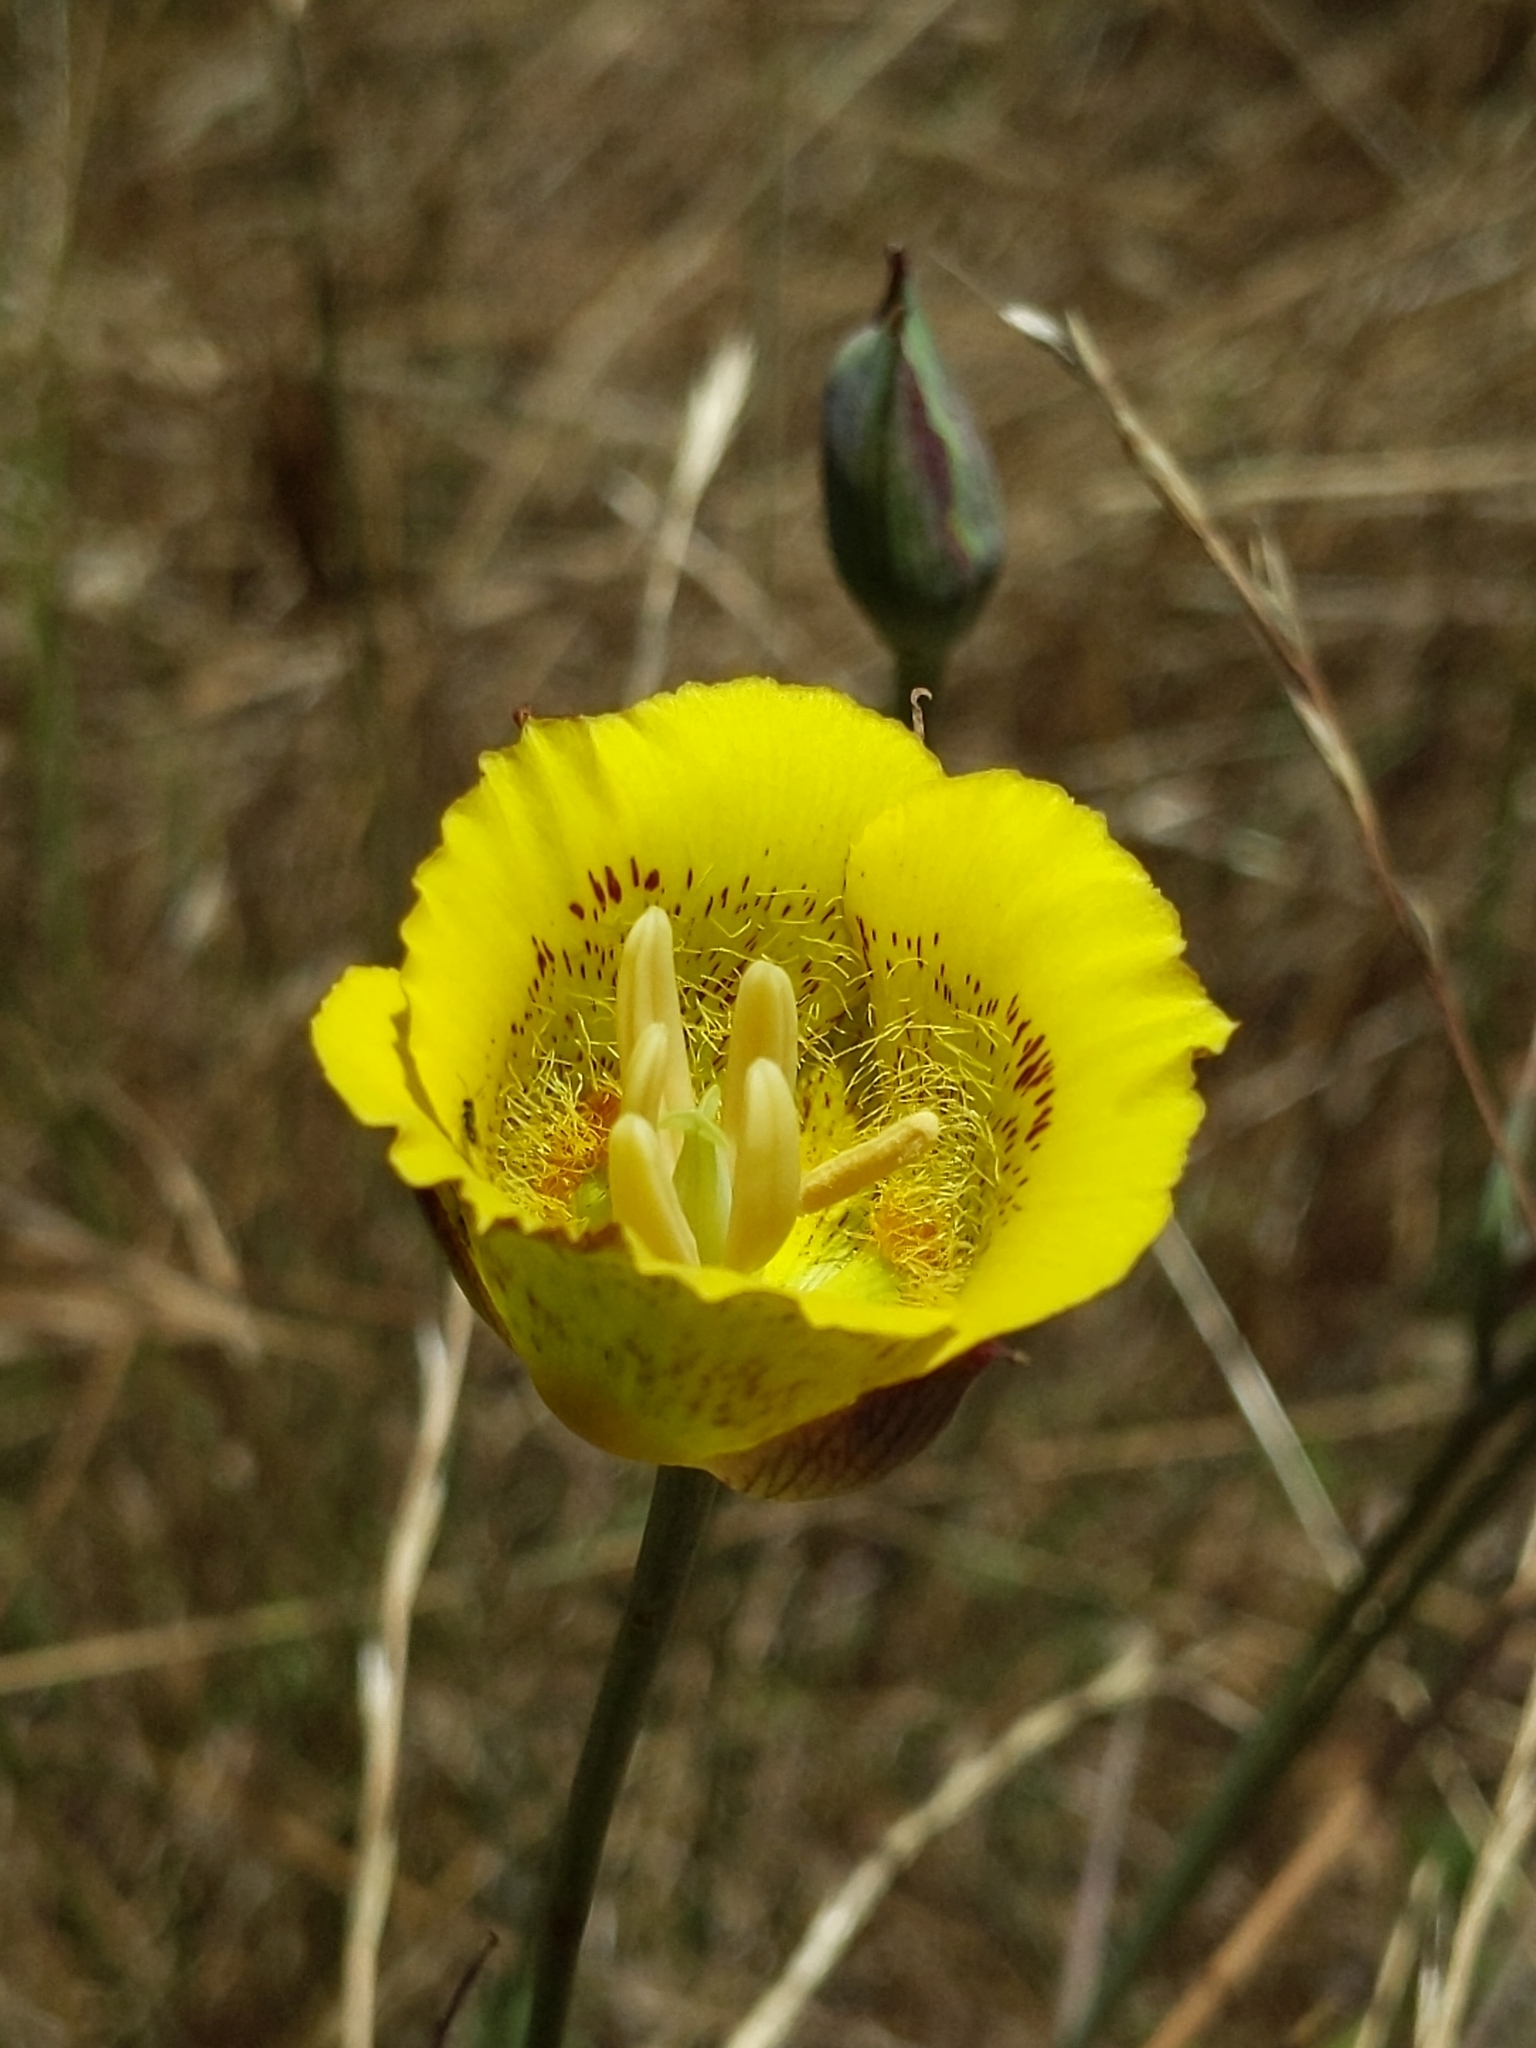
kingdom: Plantae
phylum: Tracheophyta
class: Liliopsida
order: Liliales
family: Liliaceae
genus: Calochortus
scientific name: Calochortus luteus
